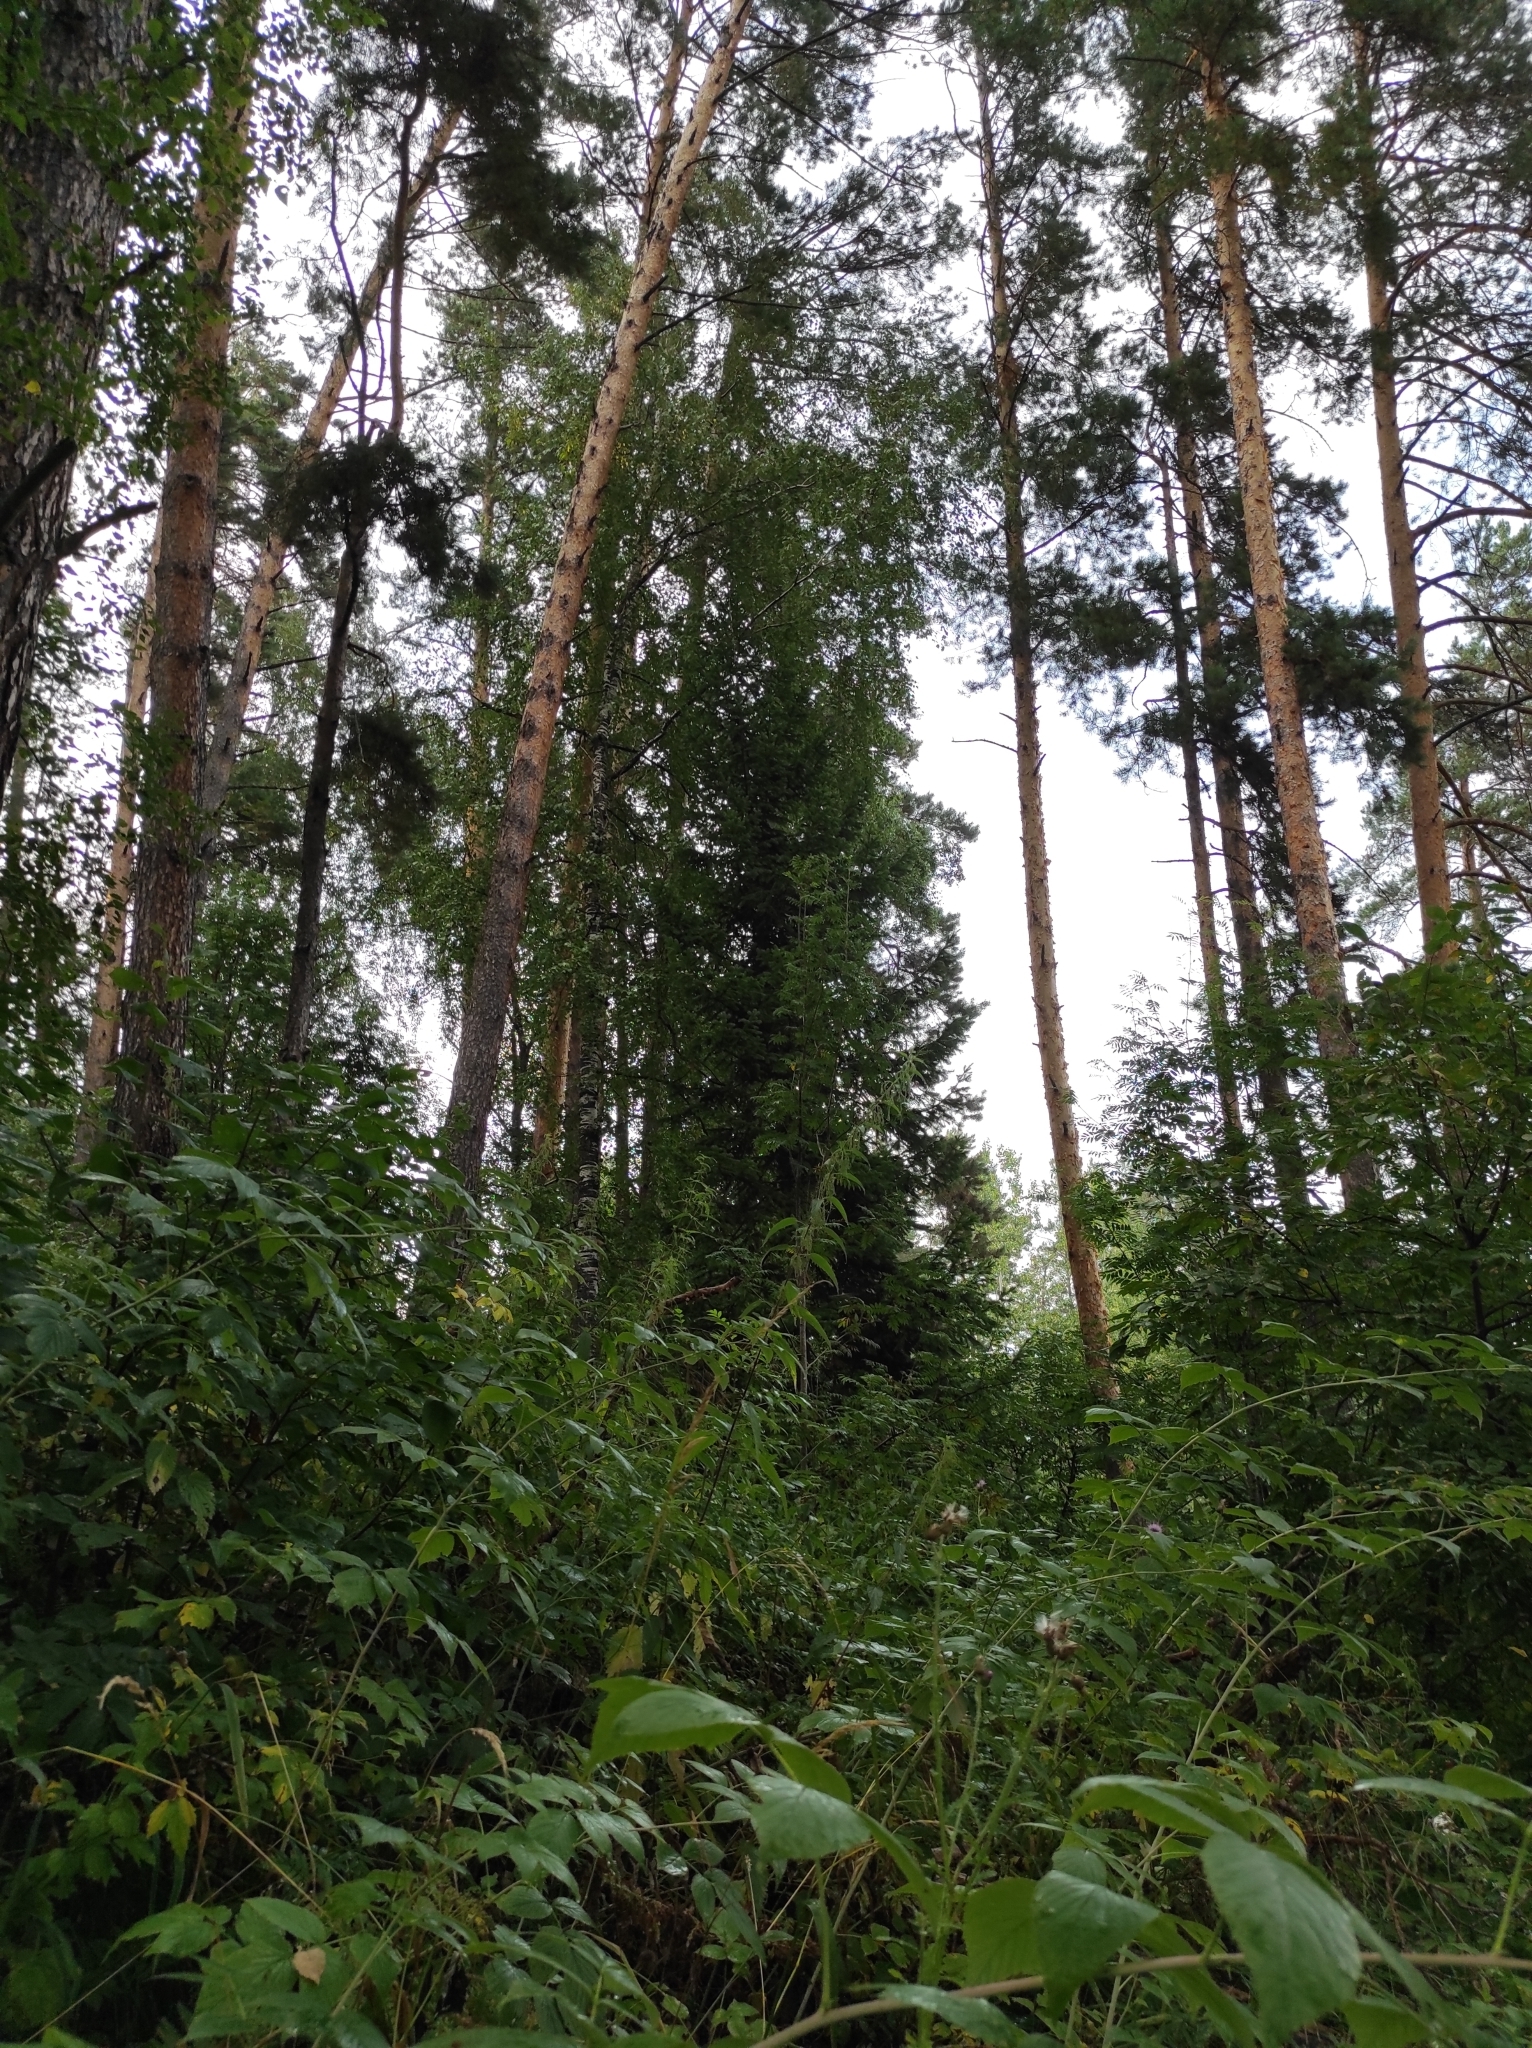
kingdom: Plantae
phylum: Tracheophyta
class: Pinopsida
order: Pinales
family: Pinaceae
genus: Pinus
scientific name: Pinus sylvestris
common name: Scots pine
